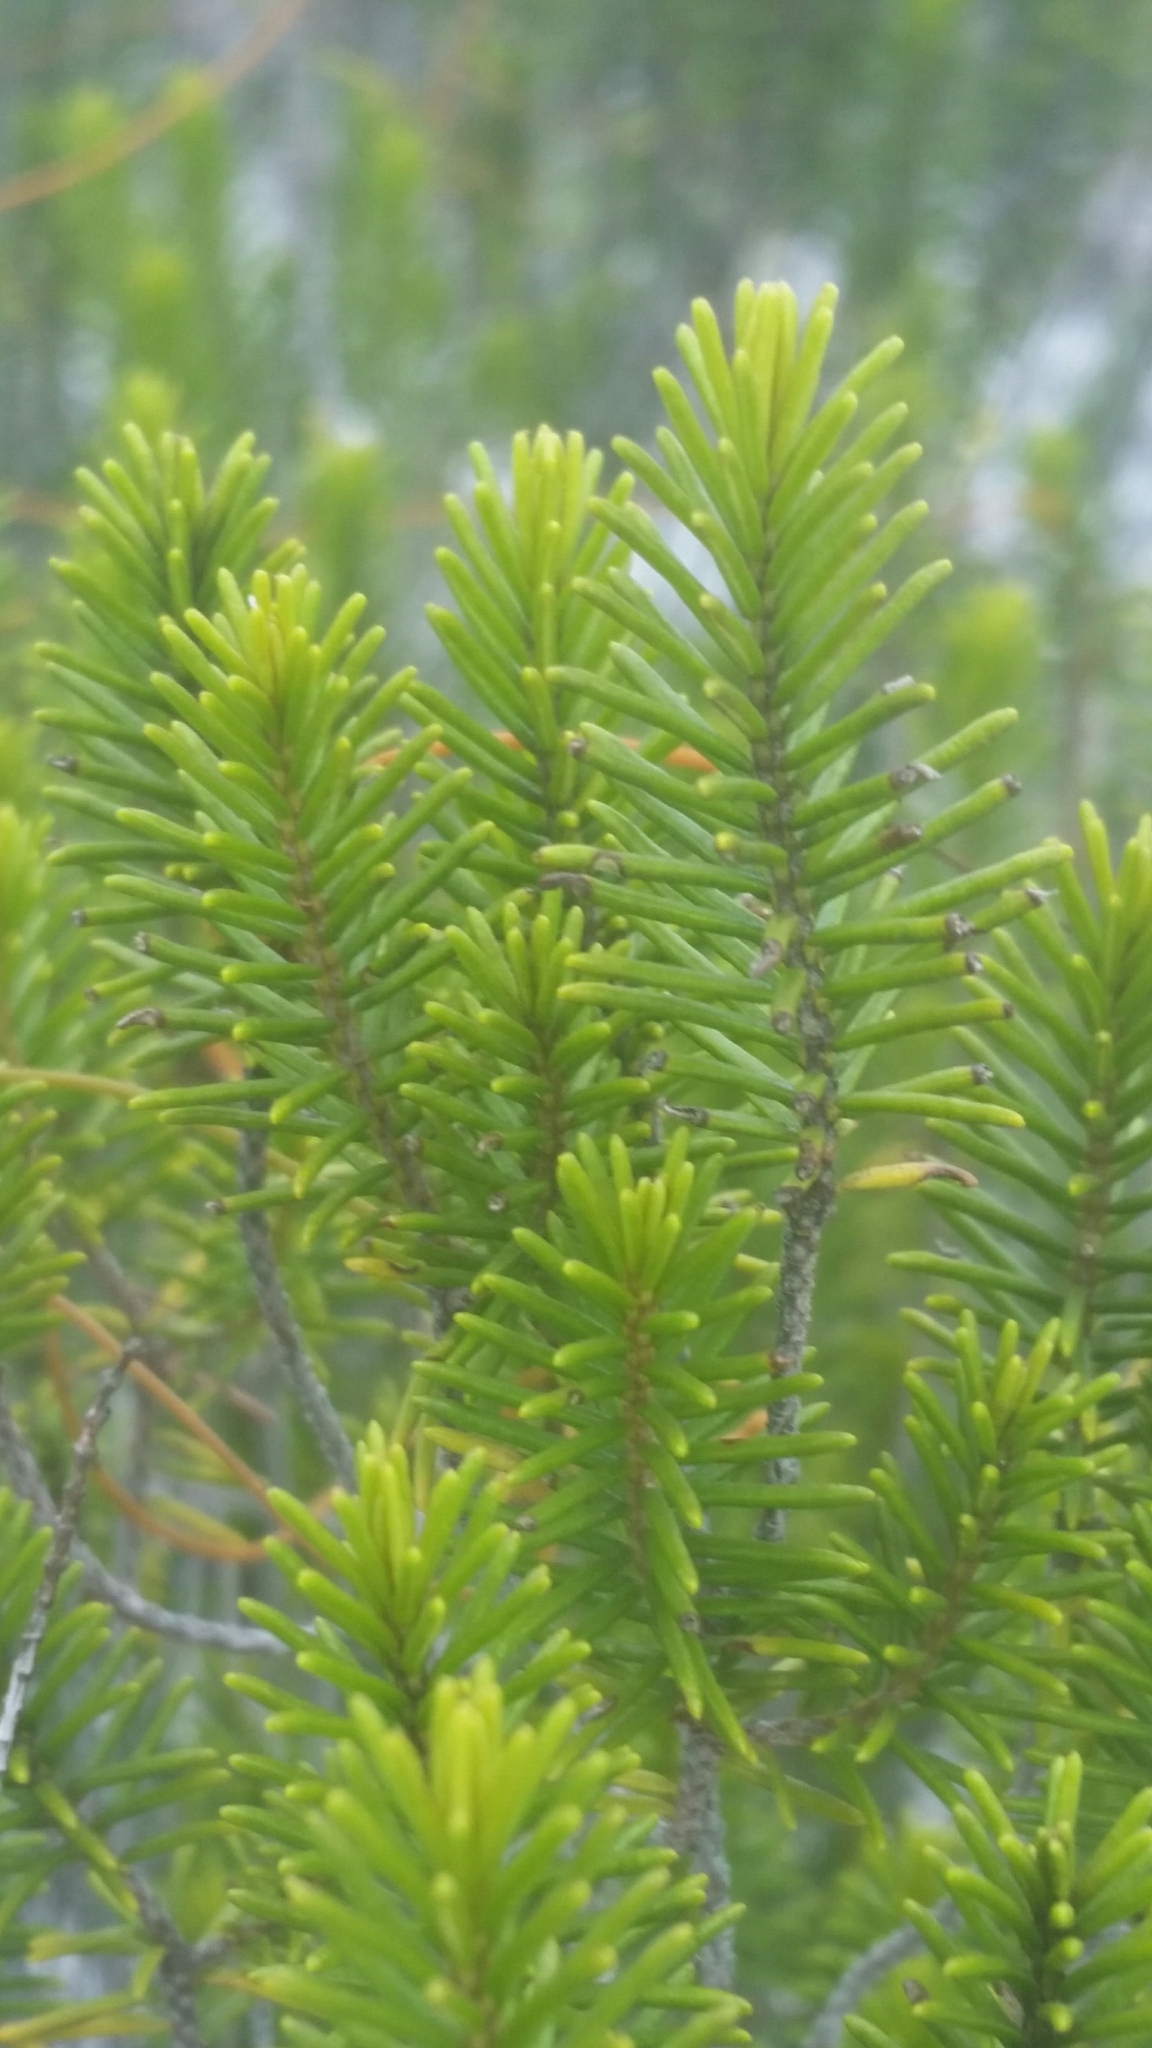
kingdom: Plantae
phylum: Tracheophyta
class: Magnoliopsida
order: Ericales
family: Ericaceae
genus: Ceratiola
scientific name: Ceratiola ericoides
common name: Sandhill-rosemary
